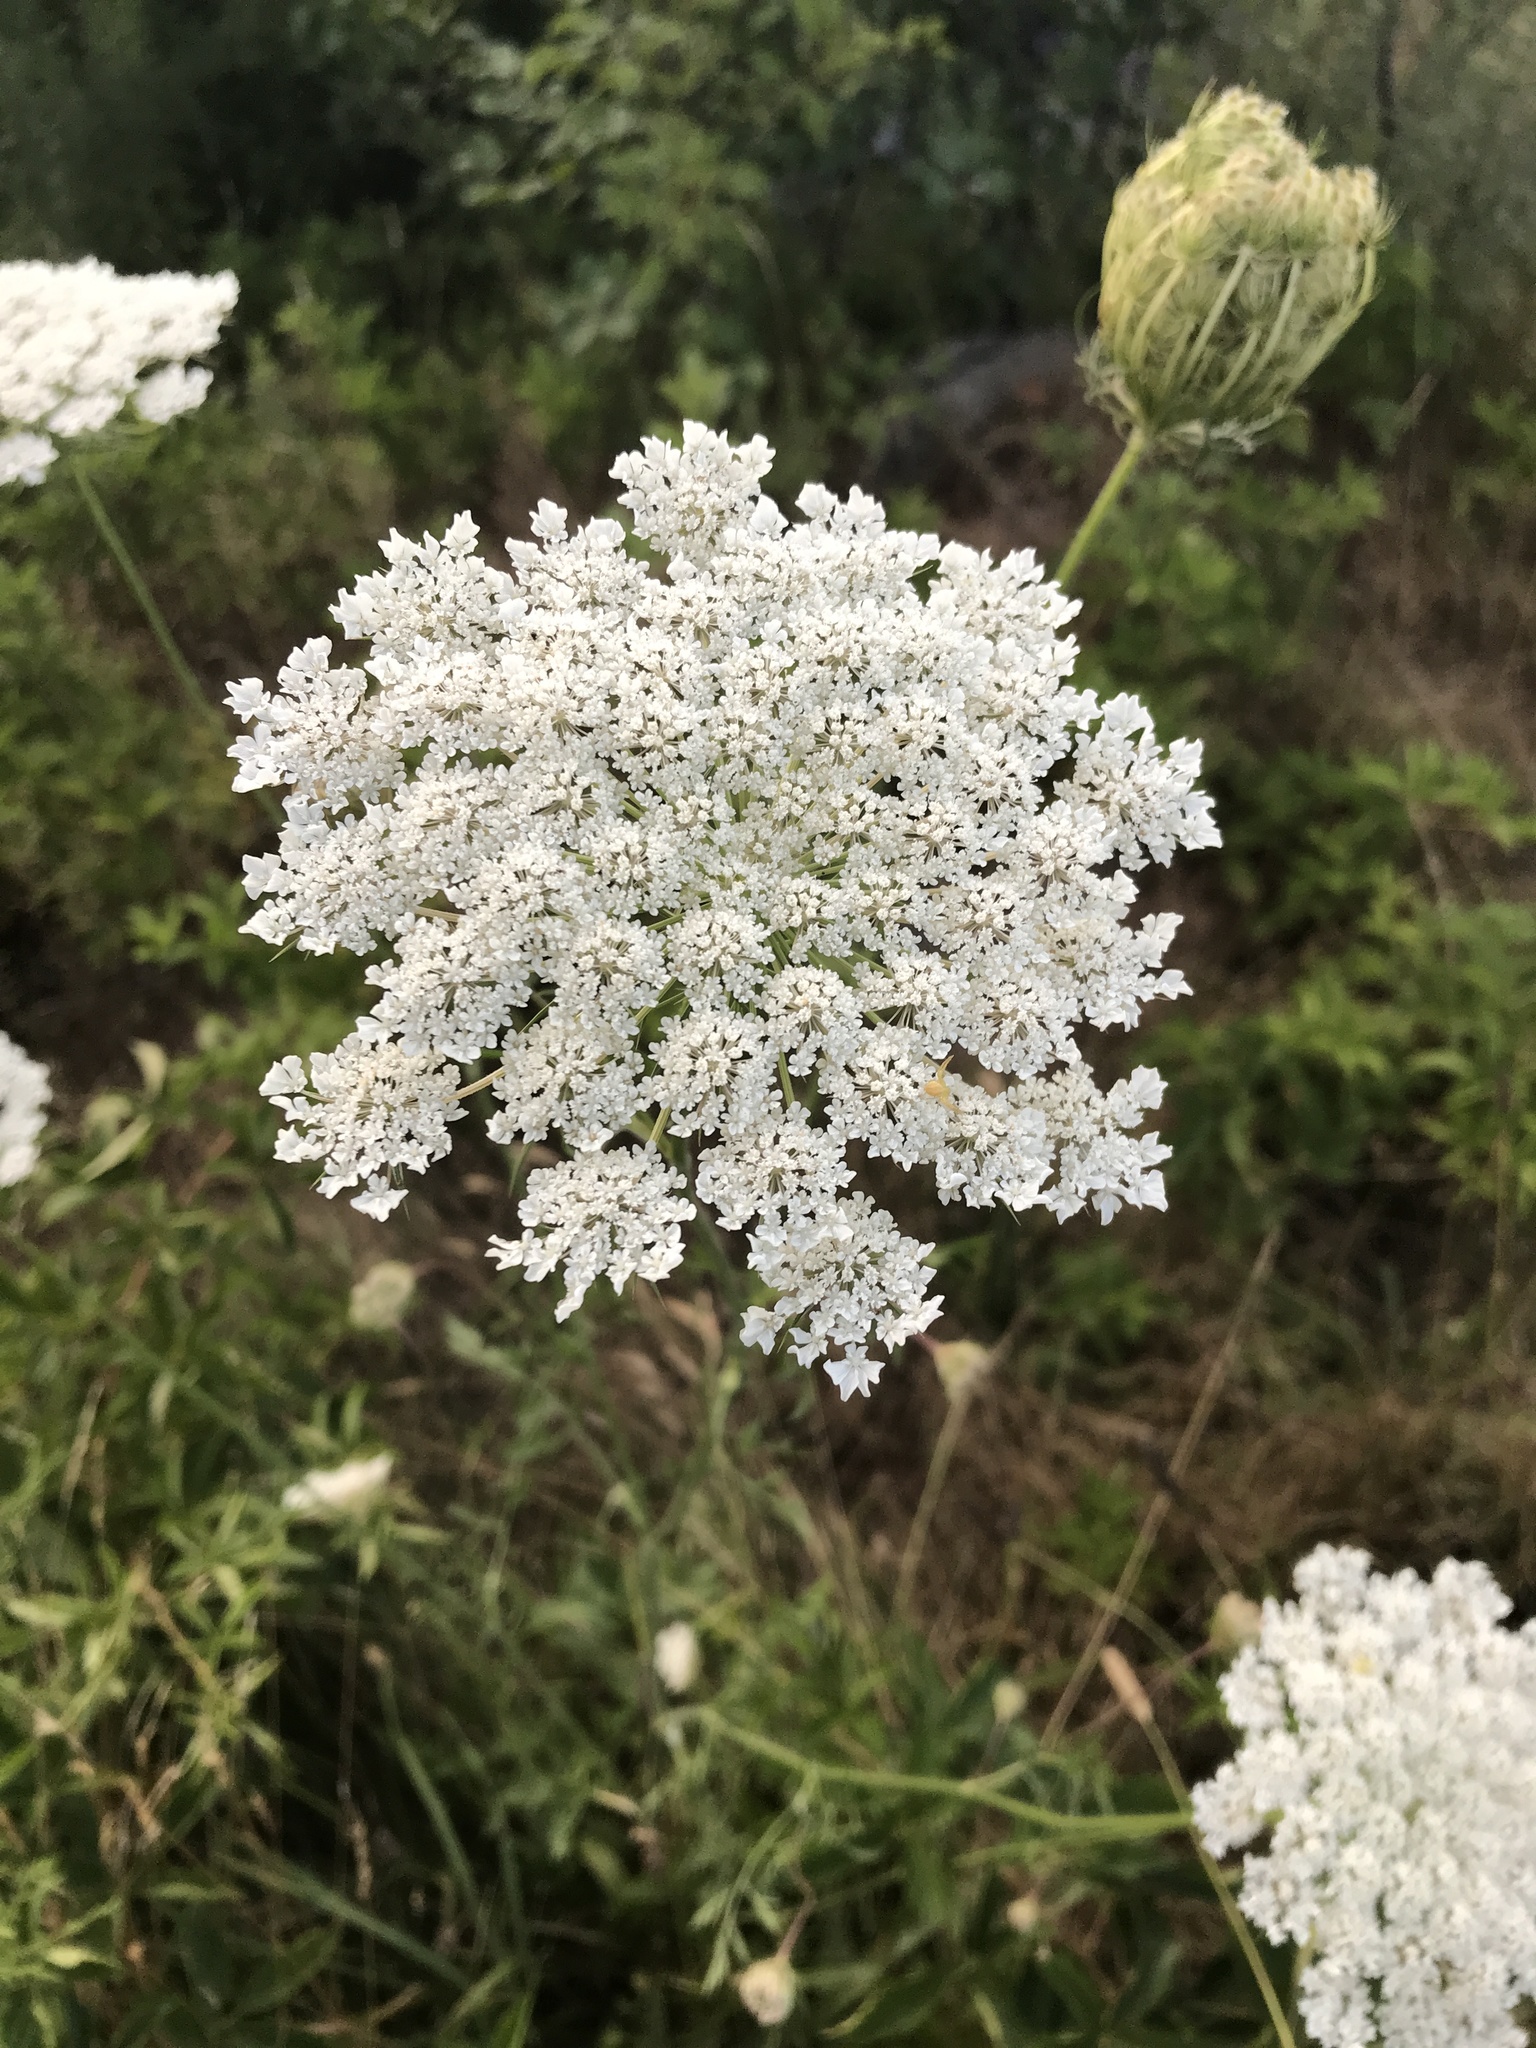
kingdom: Plantae
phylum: Tracheophyta
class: Magnoliopsida
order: Apiales
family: Apiaceae
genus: Daucus
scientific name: Daucus carota
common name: Wild carrot
